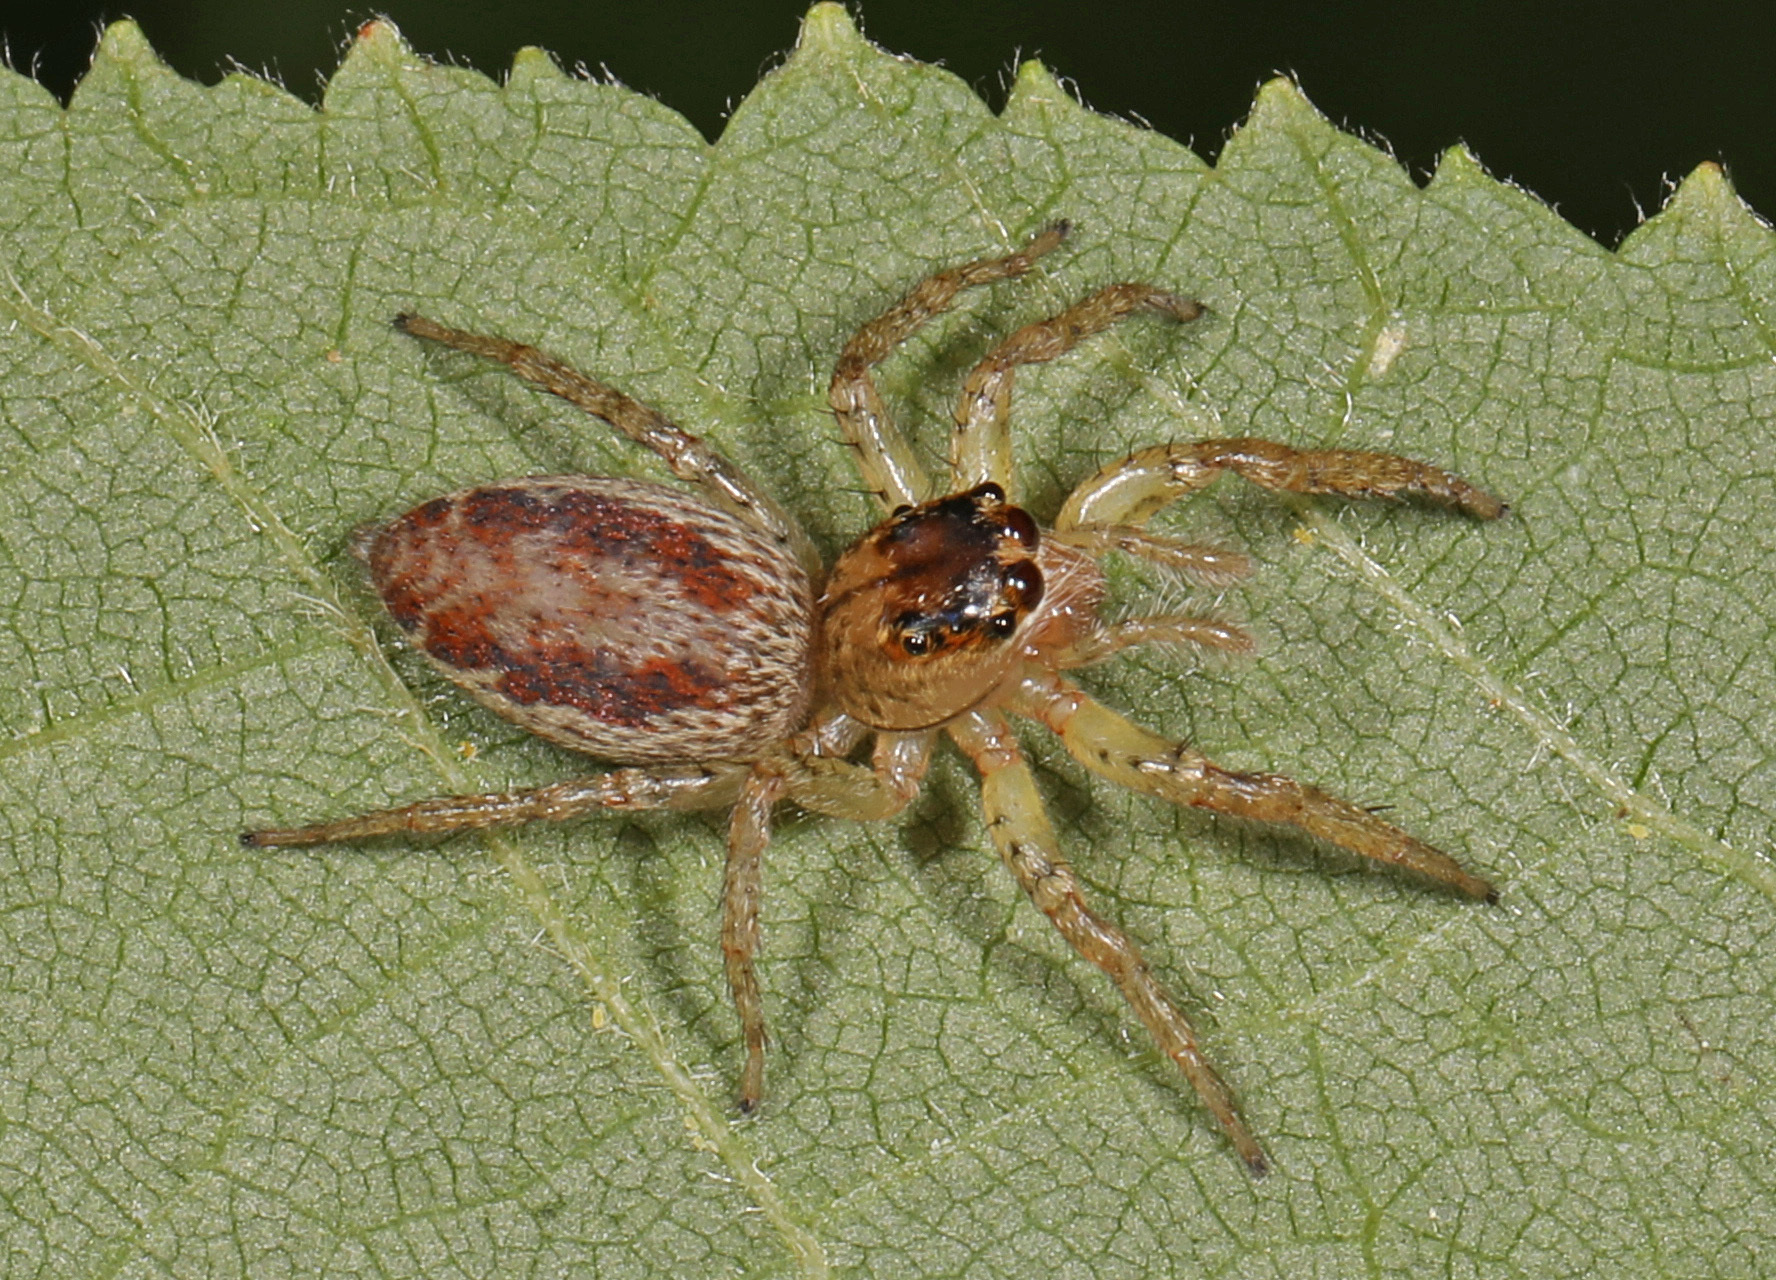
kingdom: Animalia
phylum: Arthropoda
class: Arachnida
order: Araneae
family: Salticidae
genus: Maevia
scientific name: Maevia inclemens
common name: Dimorphic jumper
